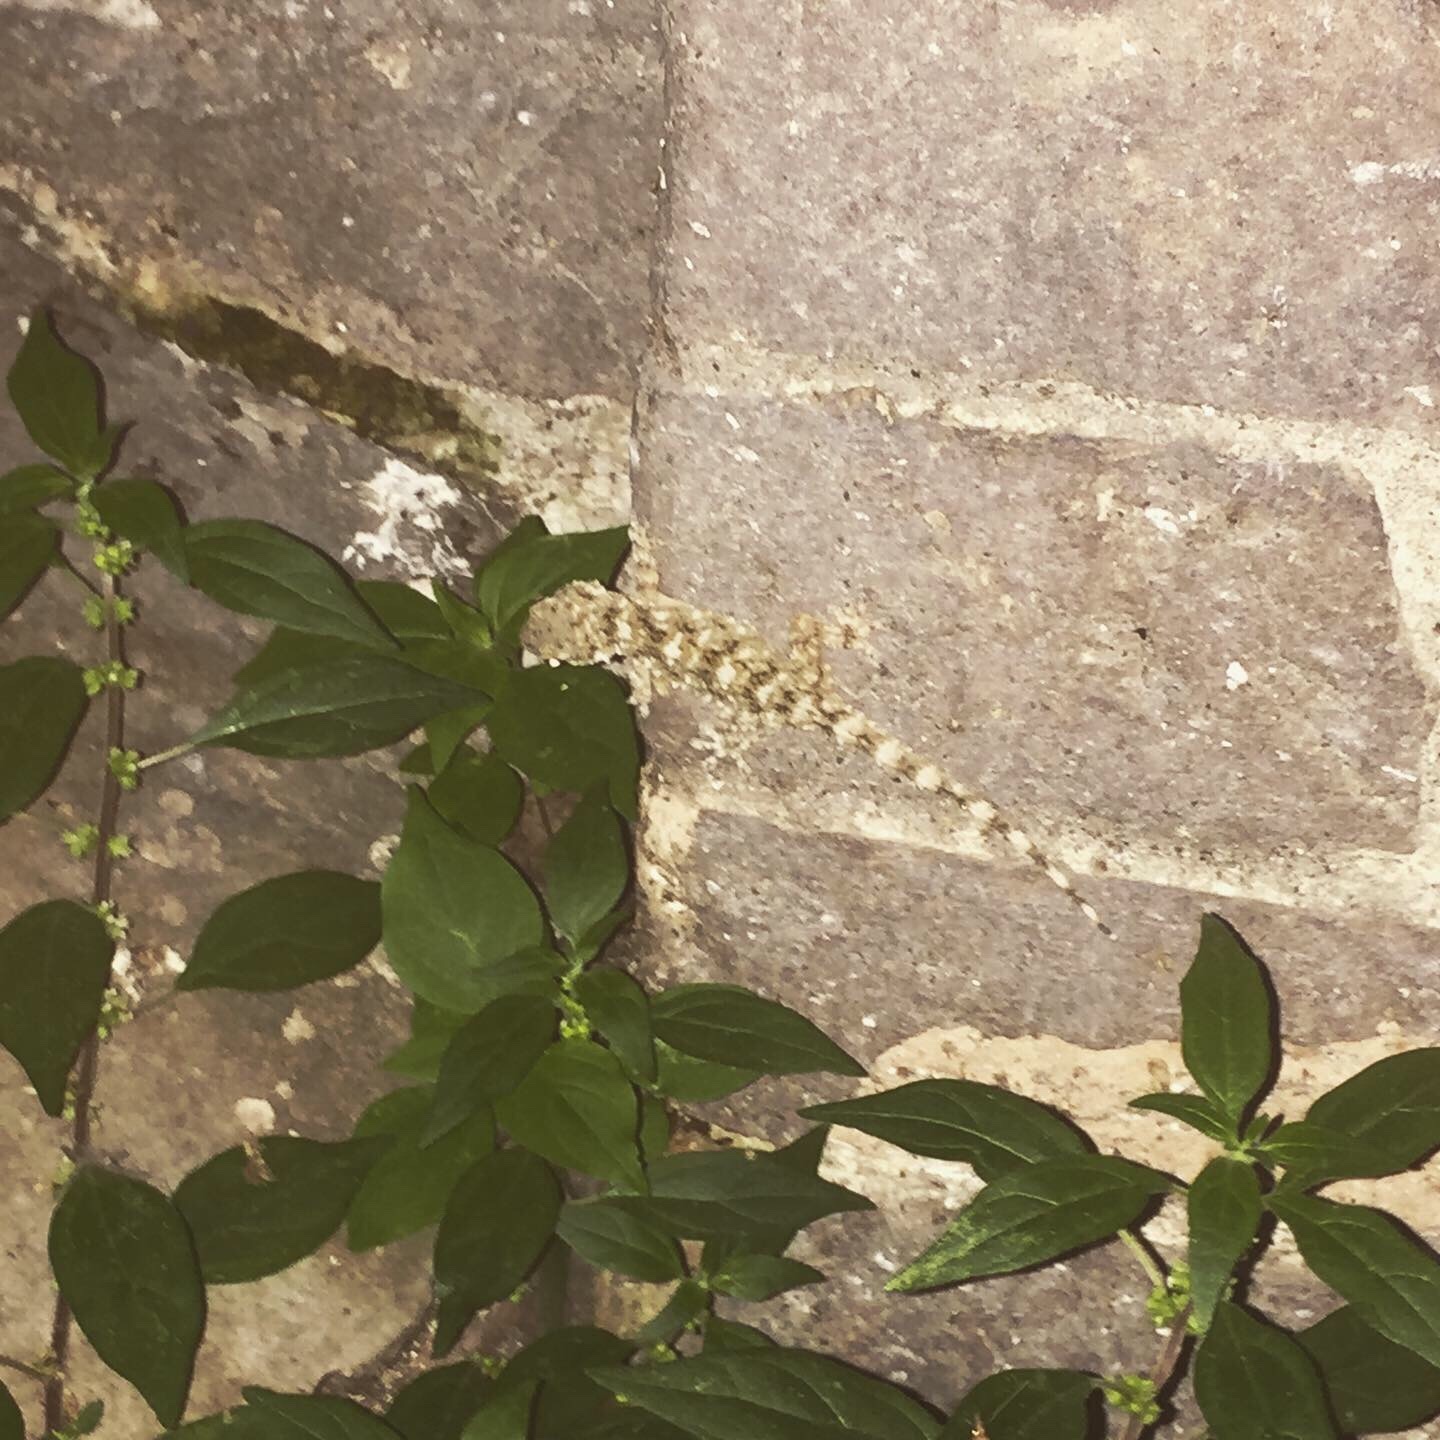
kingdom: Animalia
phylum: Chordata
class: Squamata
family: Phyllodactylidae
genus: Tarentola
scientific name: Tarentola mauritanica
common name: Moorish gecko
